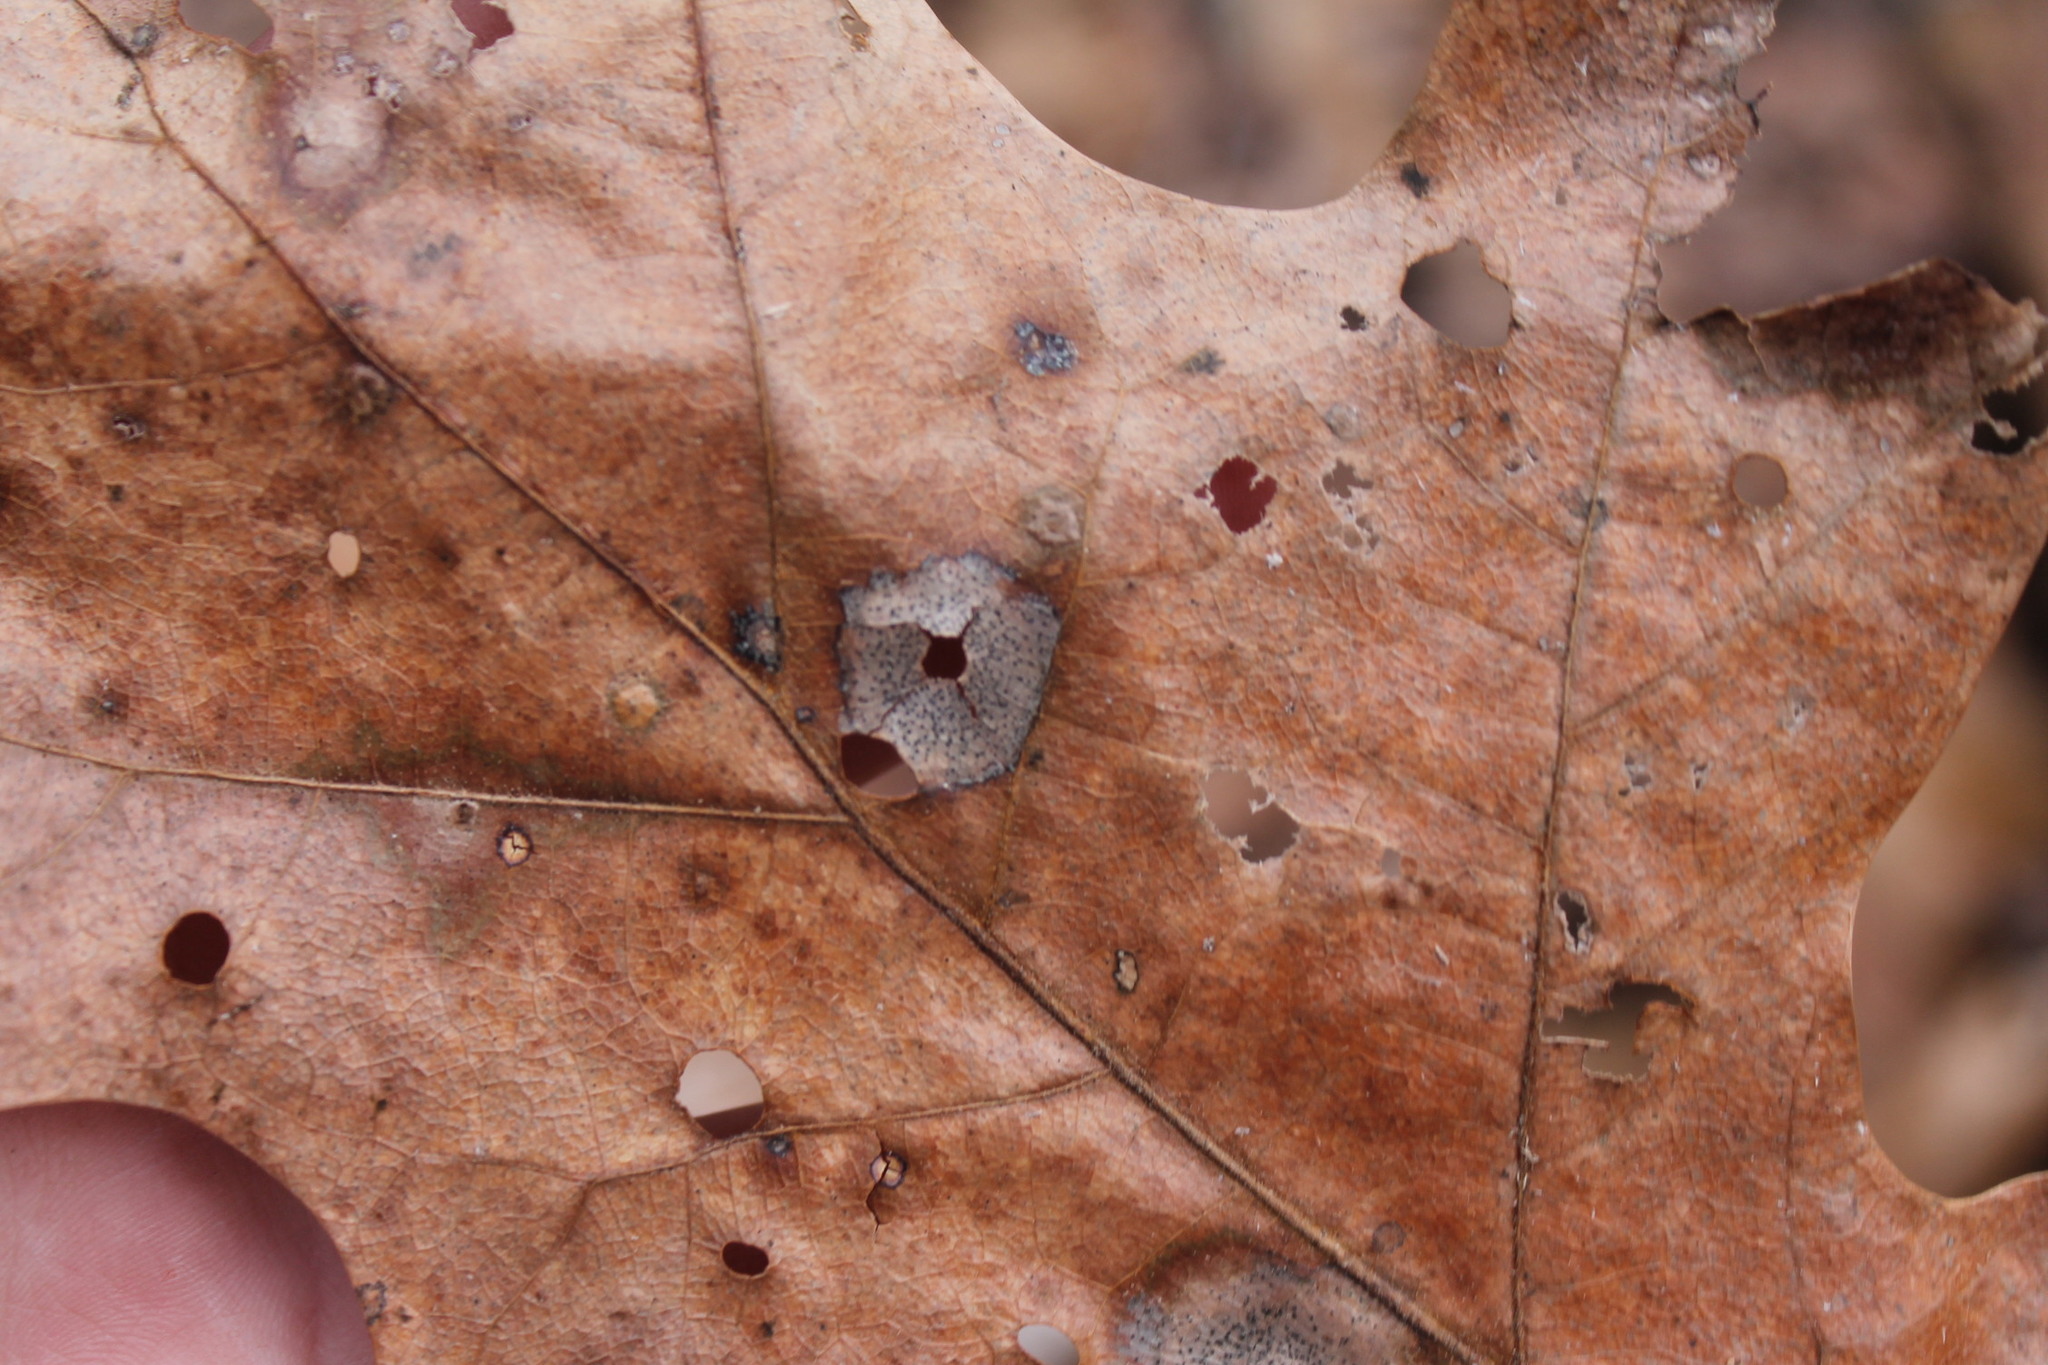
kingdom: Fungi
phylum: Ascomycota
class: Sordariomycetes
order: Diaporthales
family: Melanconidaceae
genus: Dicarpella
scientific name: Dicarpella dryina
